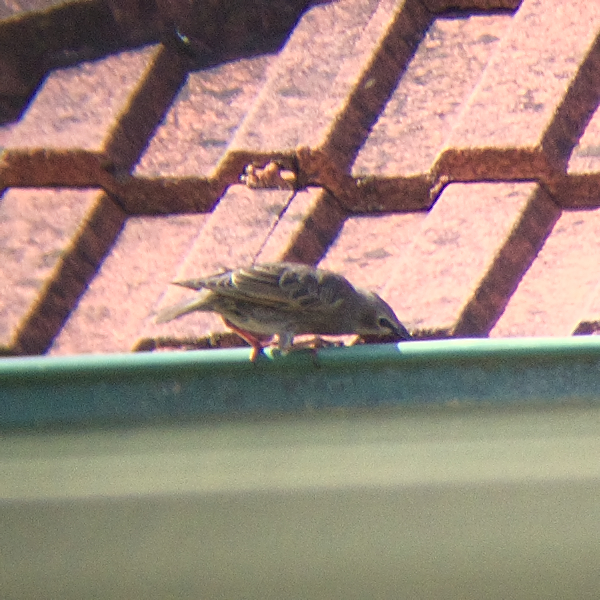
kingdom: Animalia
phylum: Chordata
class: Aves
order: Passeriformes
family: Sturnidae
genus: Sturnus
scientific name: Sturnus vulgaris
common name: Common starling
